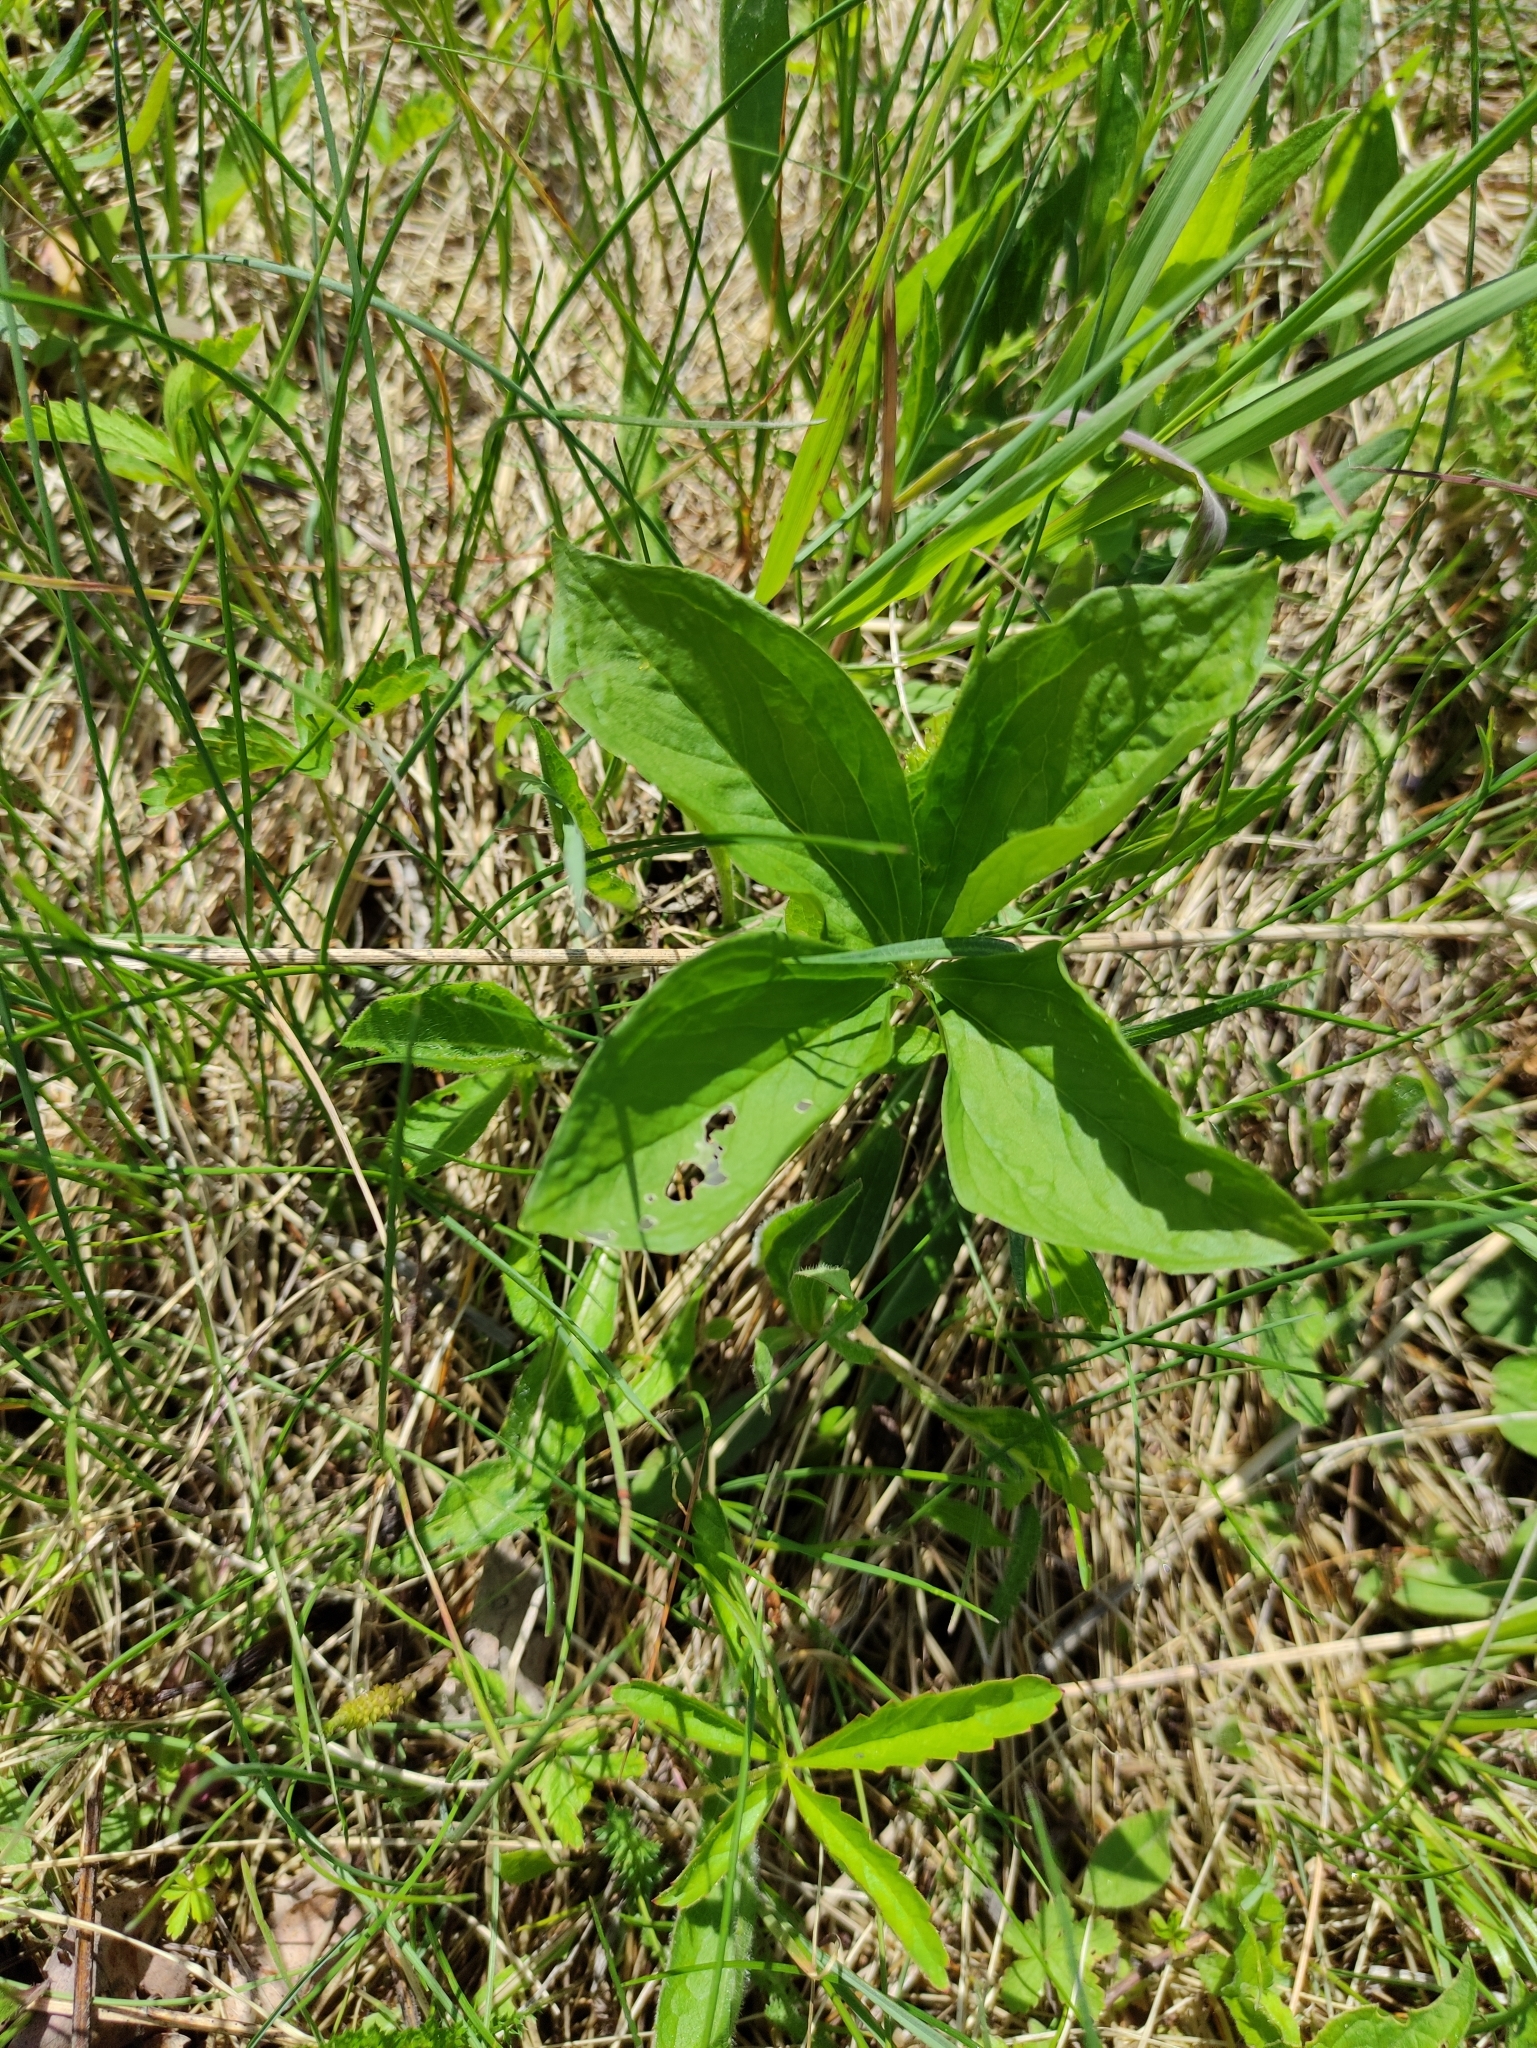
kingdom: Plantae
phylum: Tracheophyta
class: Liliopsida
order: Liliales
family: Melanthiaceae
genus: Paris
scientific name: Paris quadrifolia
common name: Herb-paris
